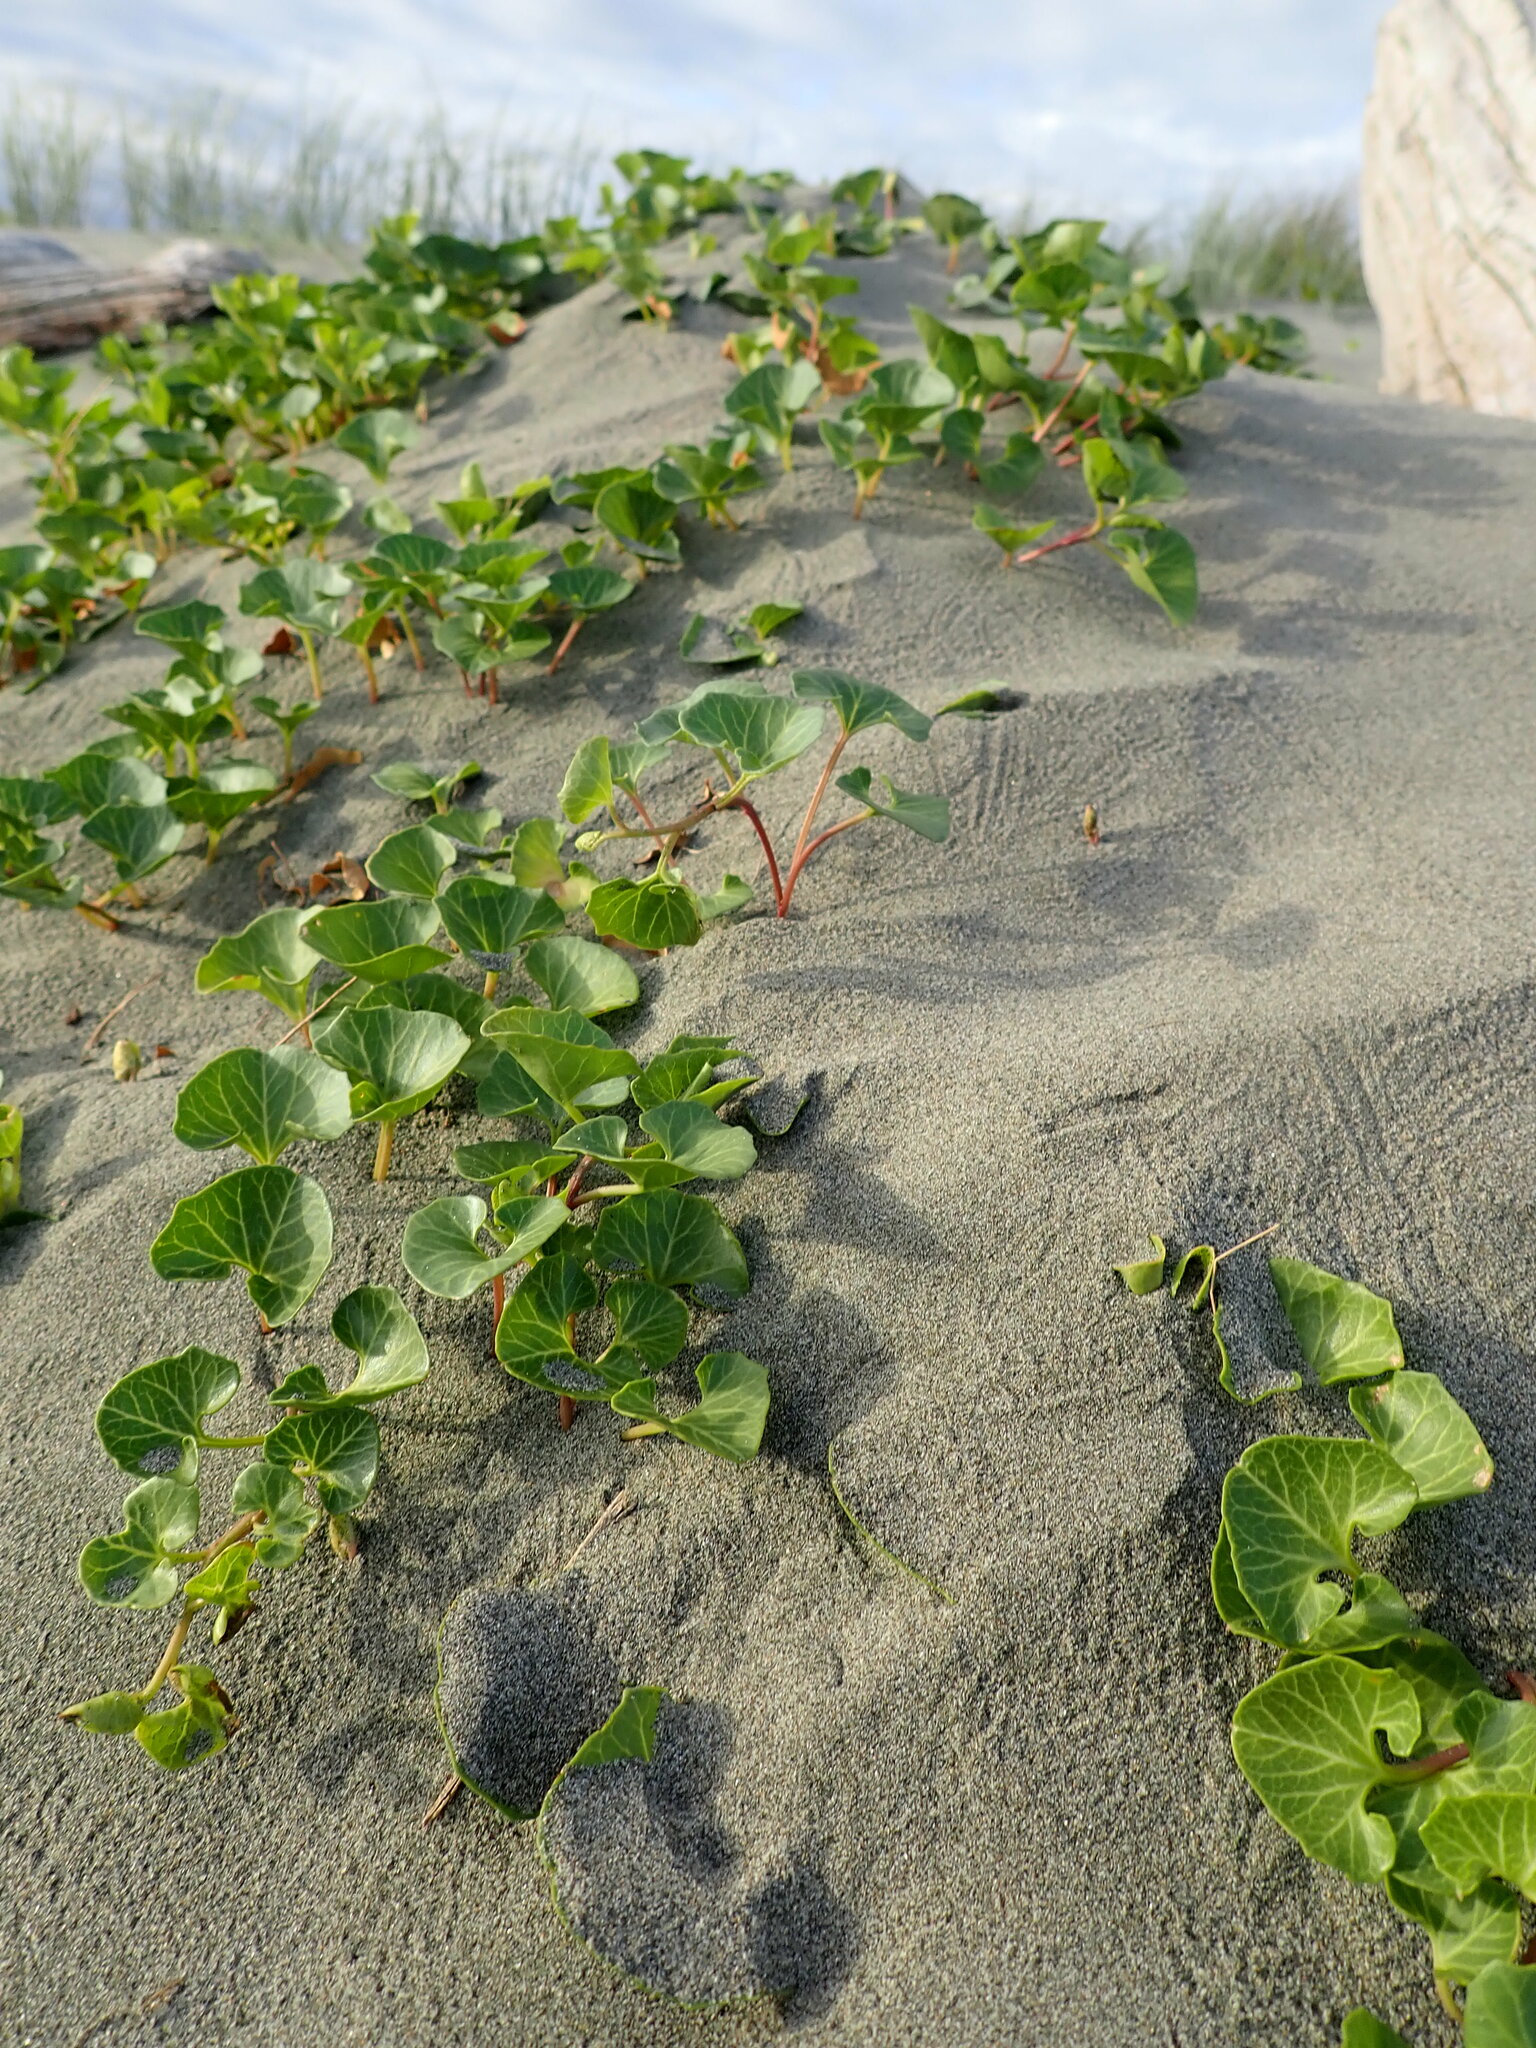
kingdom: Plantae
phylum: Tracheophyta
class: Magnoliopsida
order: Solanales
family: Convolvulaceae
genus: Calystegia
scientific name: Calystegia soldanella
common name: Sea bindweed
